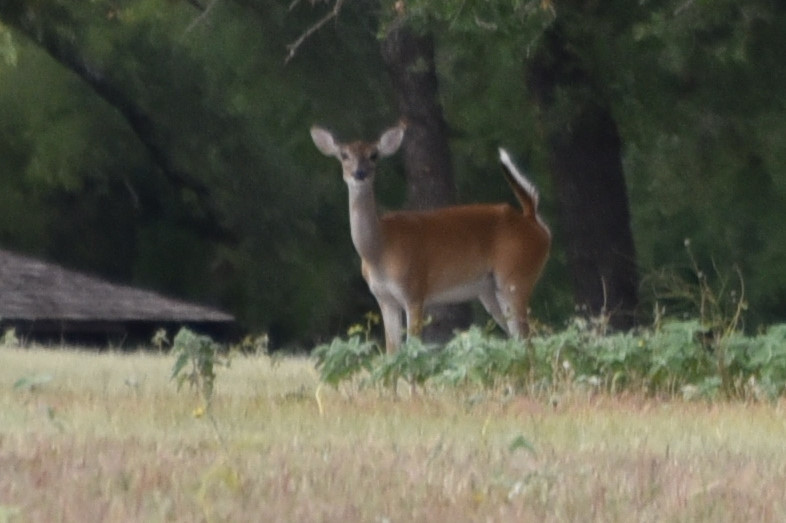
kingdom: Animalia
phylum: Chordata
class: Mammalia
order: Artiodactyla
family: Cervidae
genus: Odocoileus
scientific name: Odocoileus virginianus
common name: White-tailed deer
